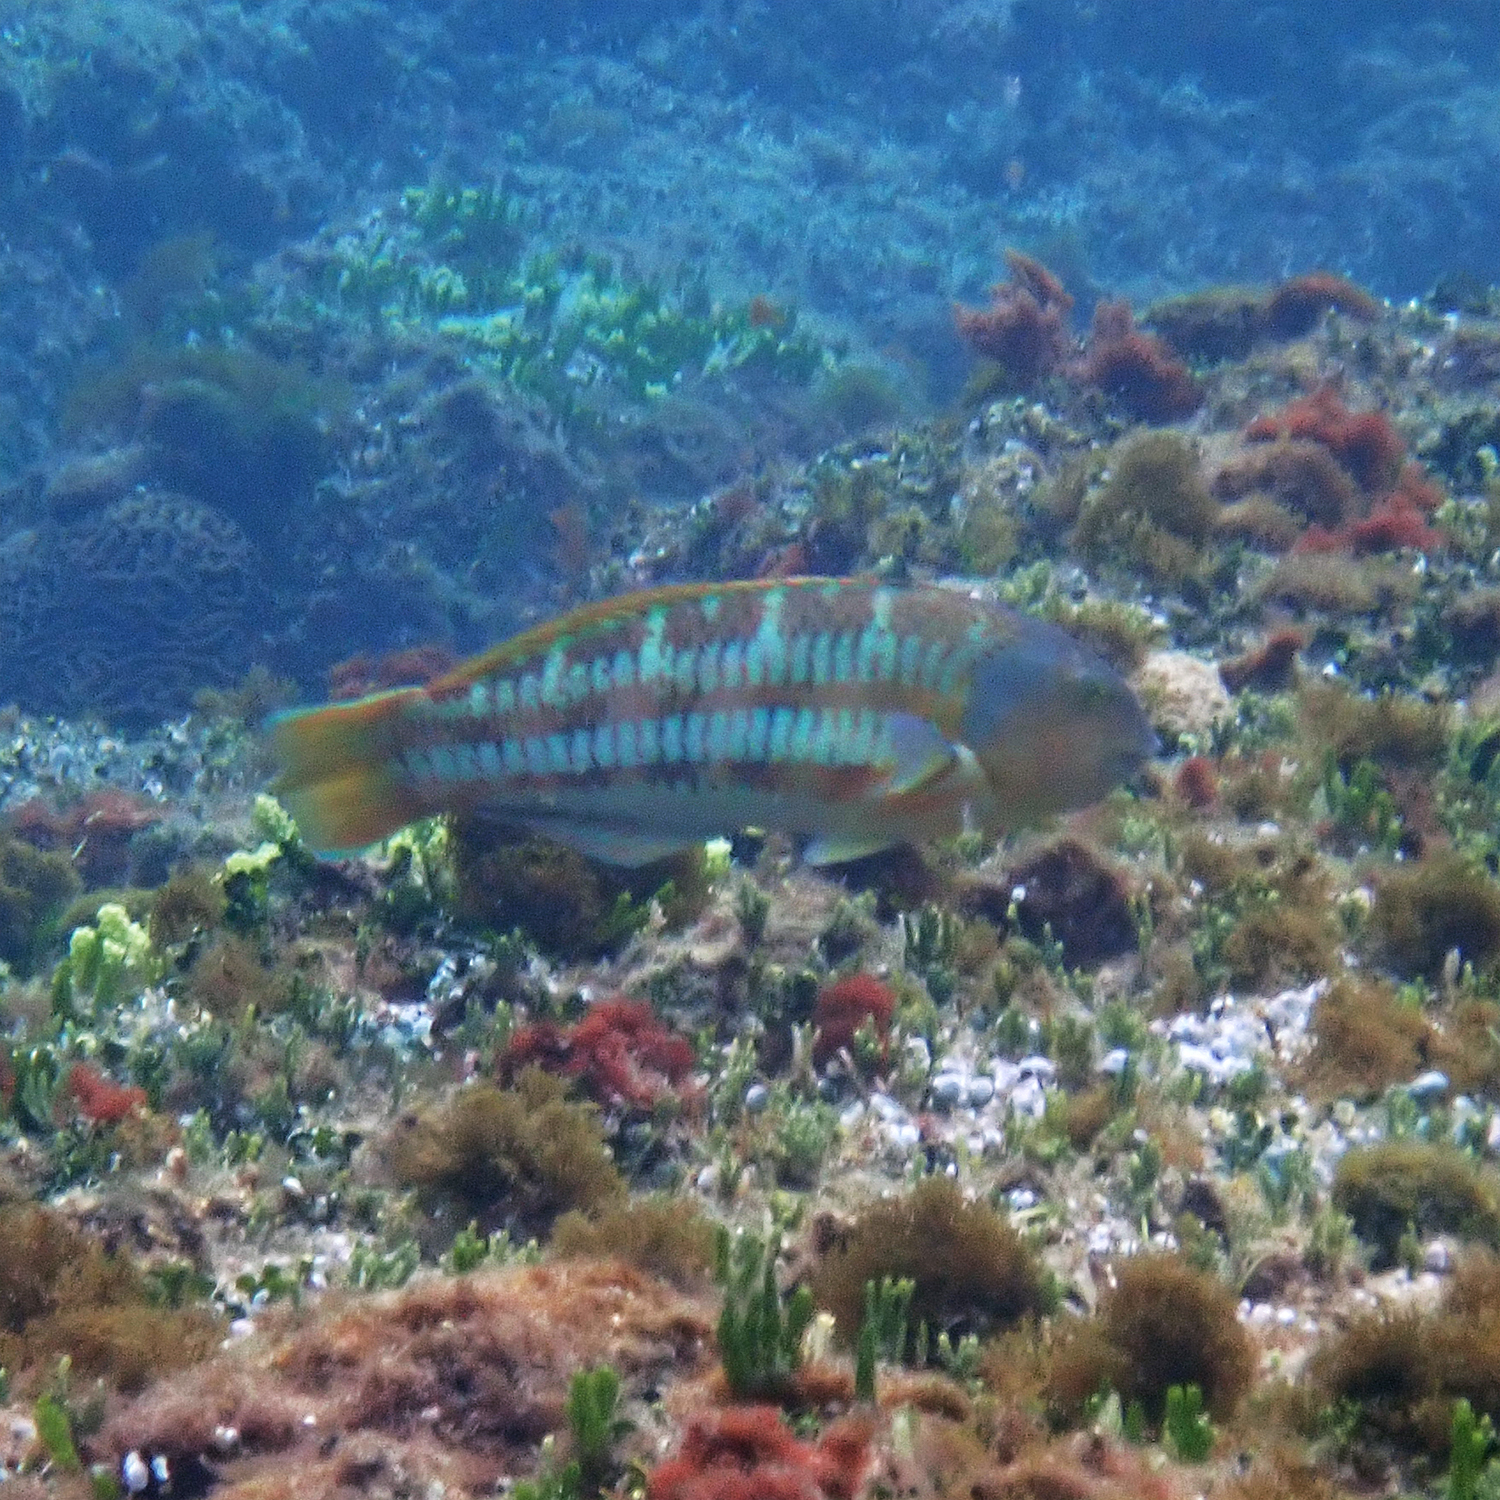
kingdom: Animalia
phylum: Chordata
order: Perciformes
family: Labridae
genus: Thalassoma
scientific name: Thalassoma trilobatum
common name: Christmas wrasse
